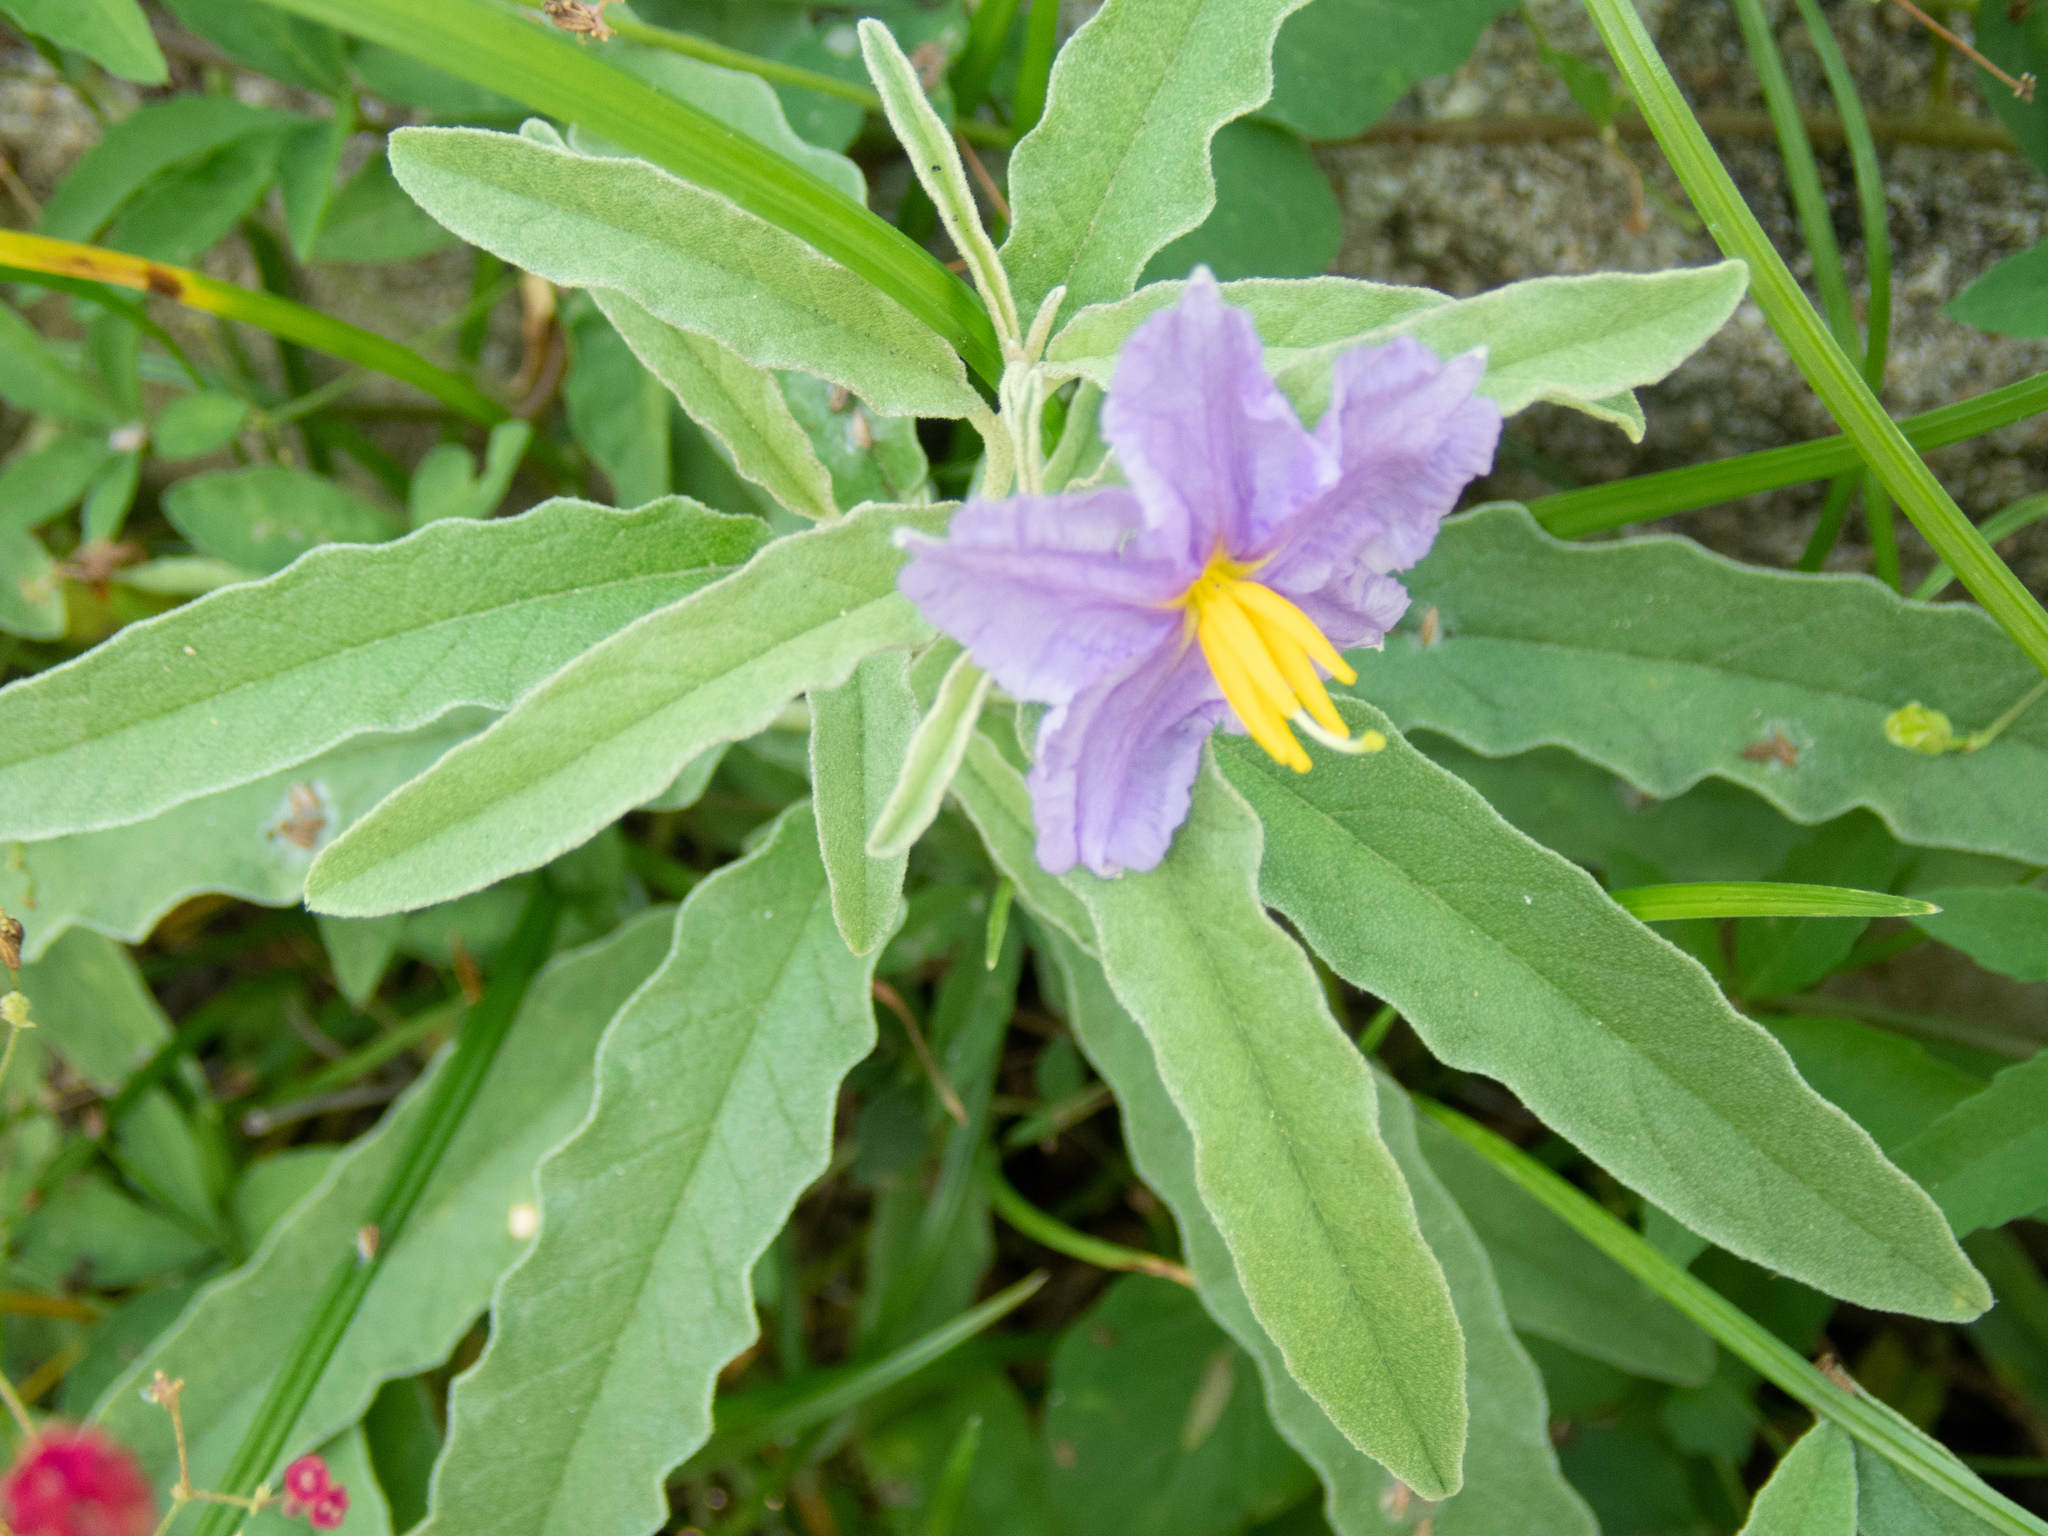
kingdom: Plantae
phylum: Tracheophyta
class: Magnoliopsida
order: Solanales
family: Solanaceae
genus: Solanum
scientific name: Solanum elaeagnifolium
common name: Silverleaf nightshade
